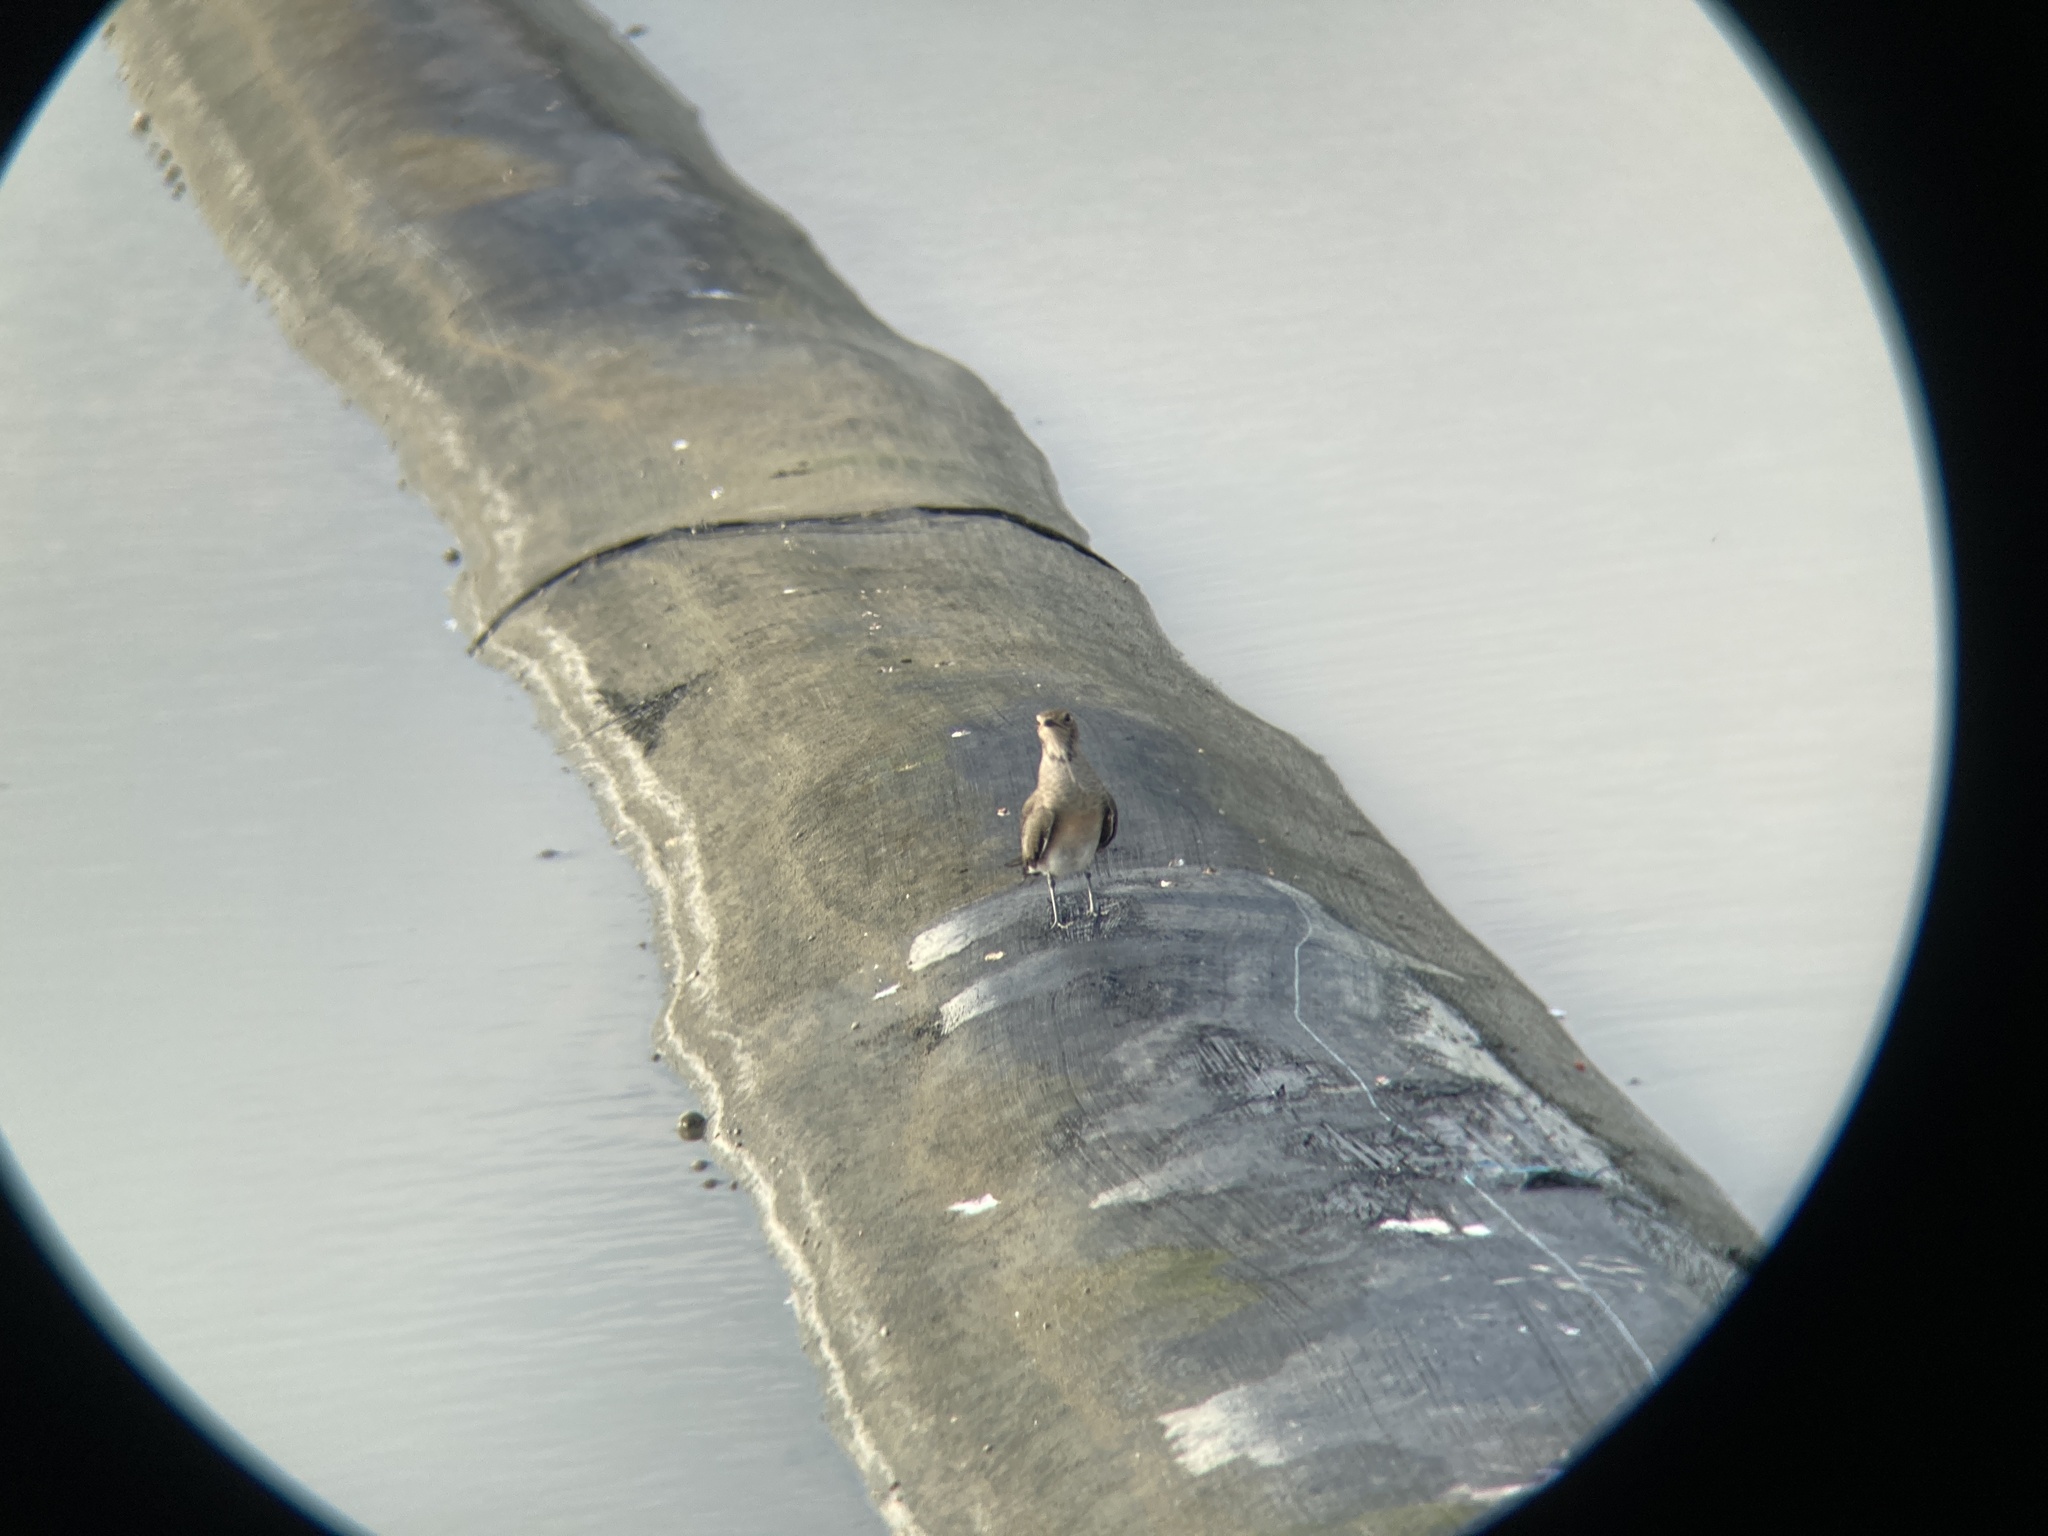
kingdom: Animalia
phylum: Chordata
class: Aves
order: Charadriiformes
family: Glareolidae
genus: Glareola
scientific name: Glareola maldivarum
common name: Oriental pratincole
